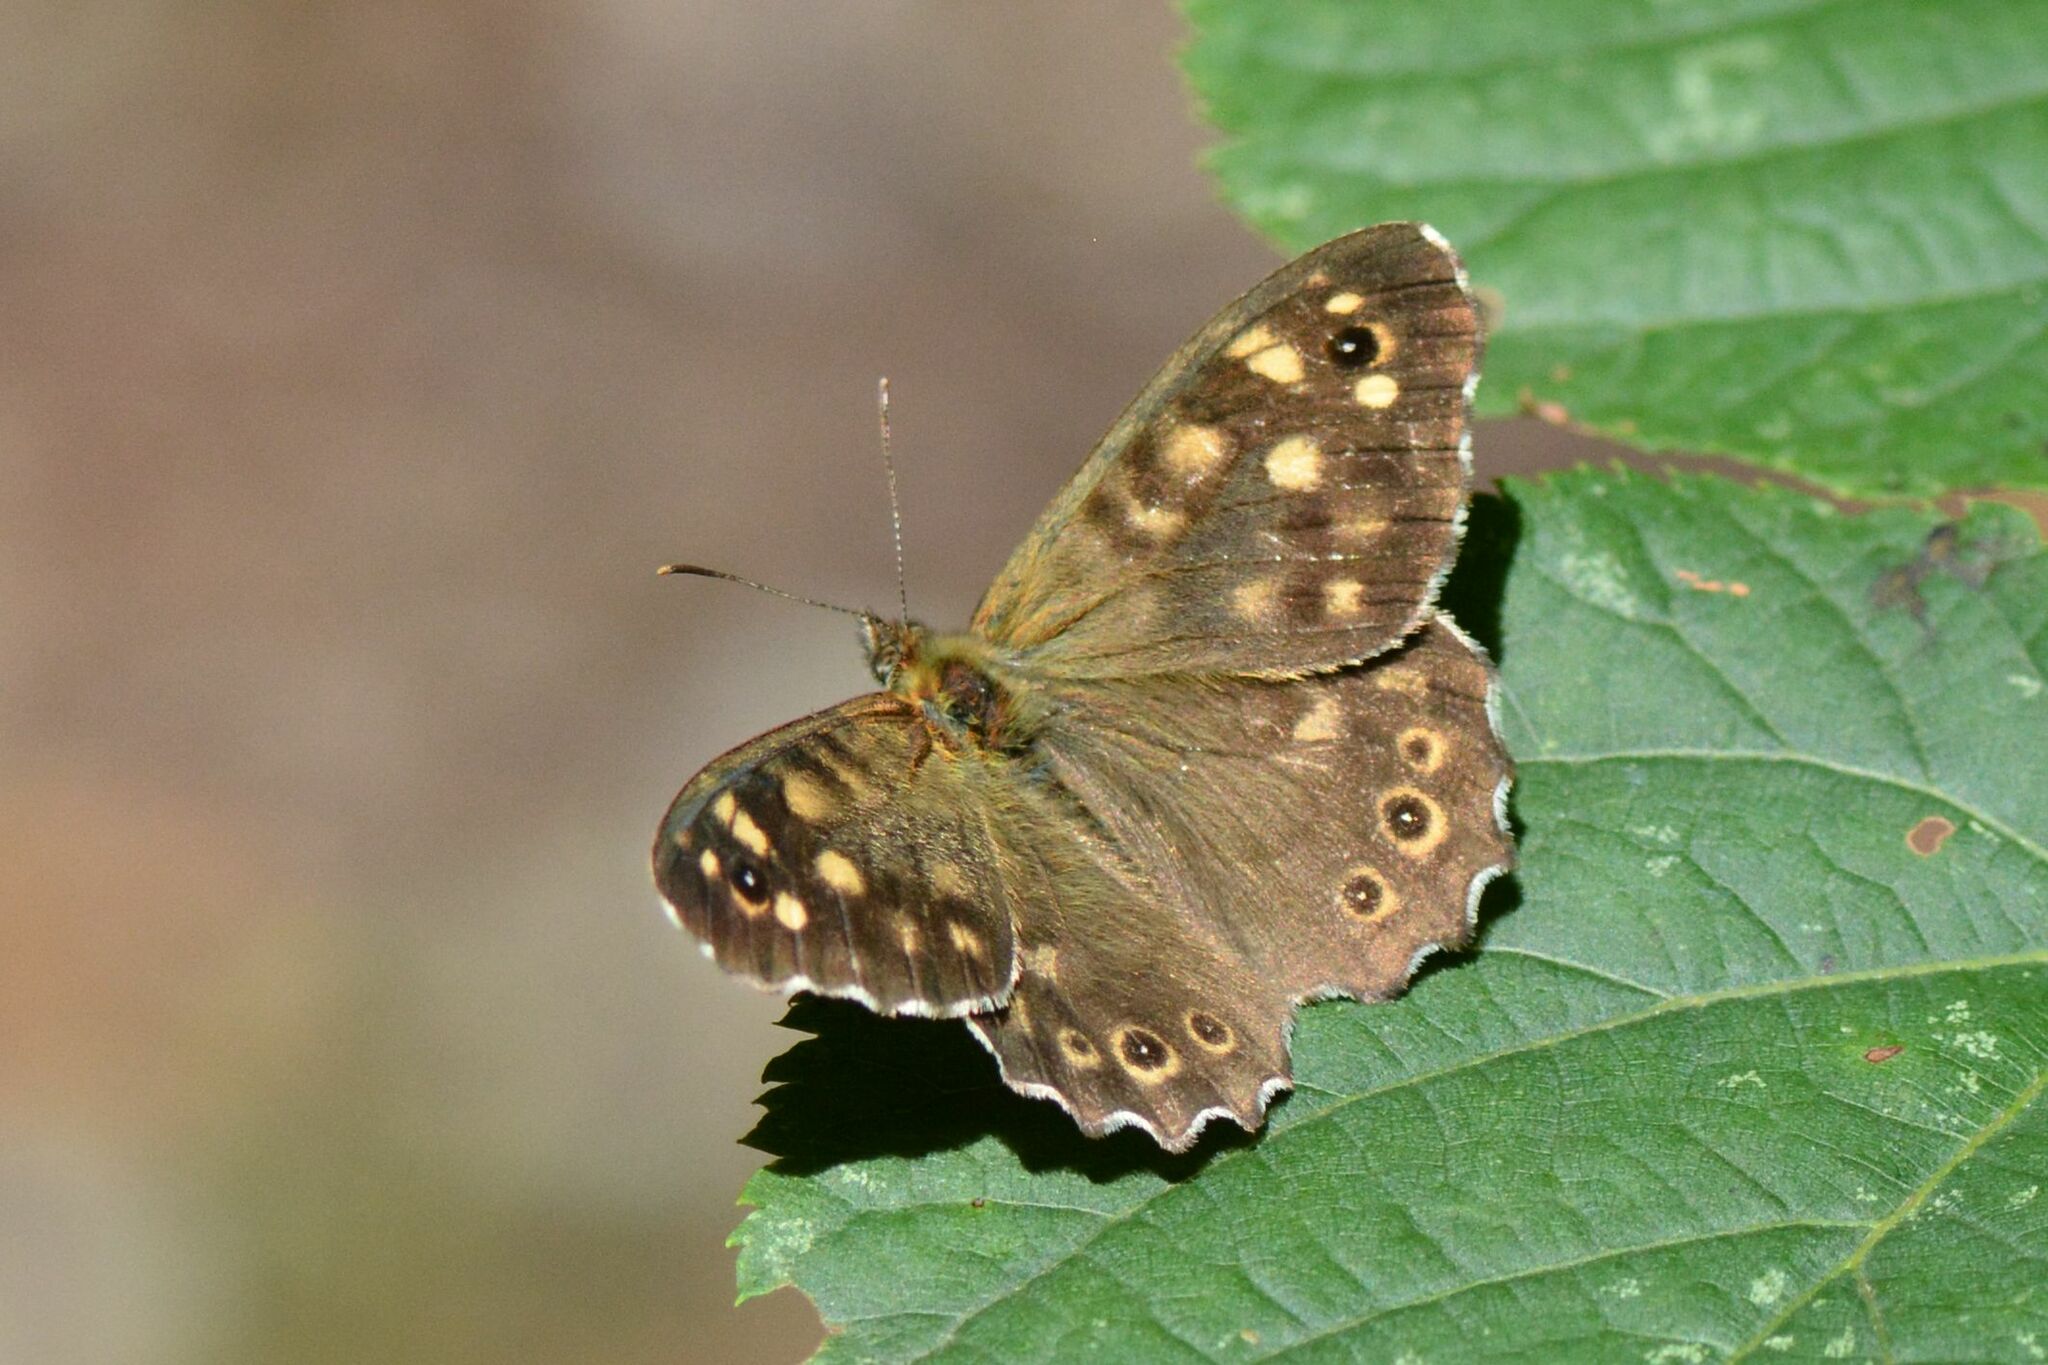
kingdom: Animalia
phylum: Arthropoda
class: Insecta
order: Lepidoptera
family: Nymphalidae
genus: Pararge
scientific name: Pararge aegeria
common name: Speckled wood
